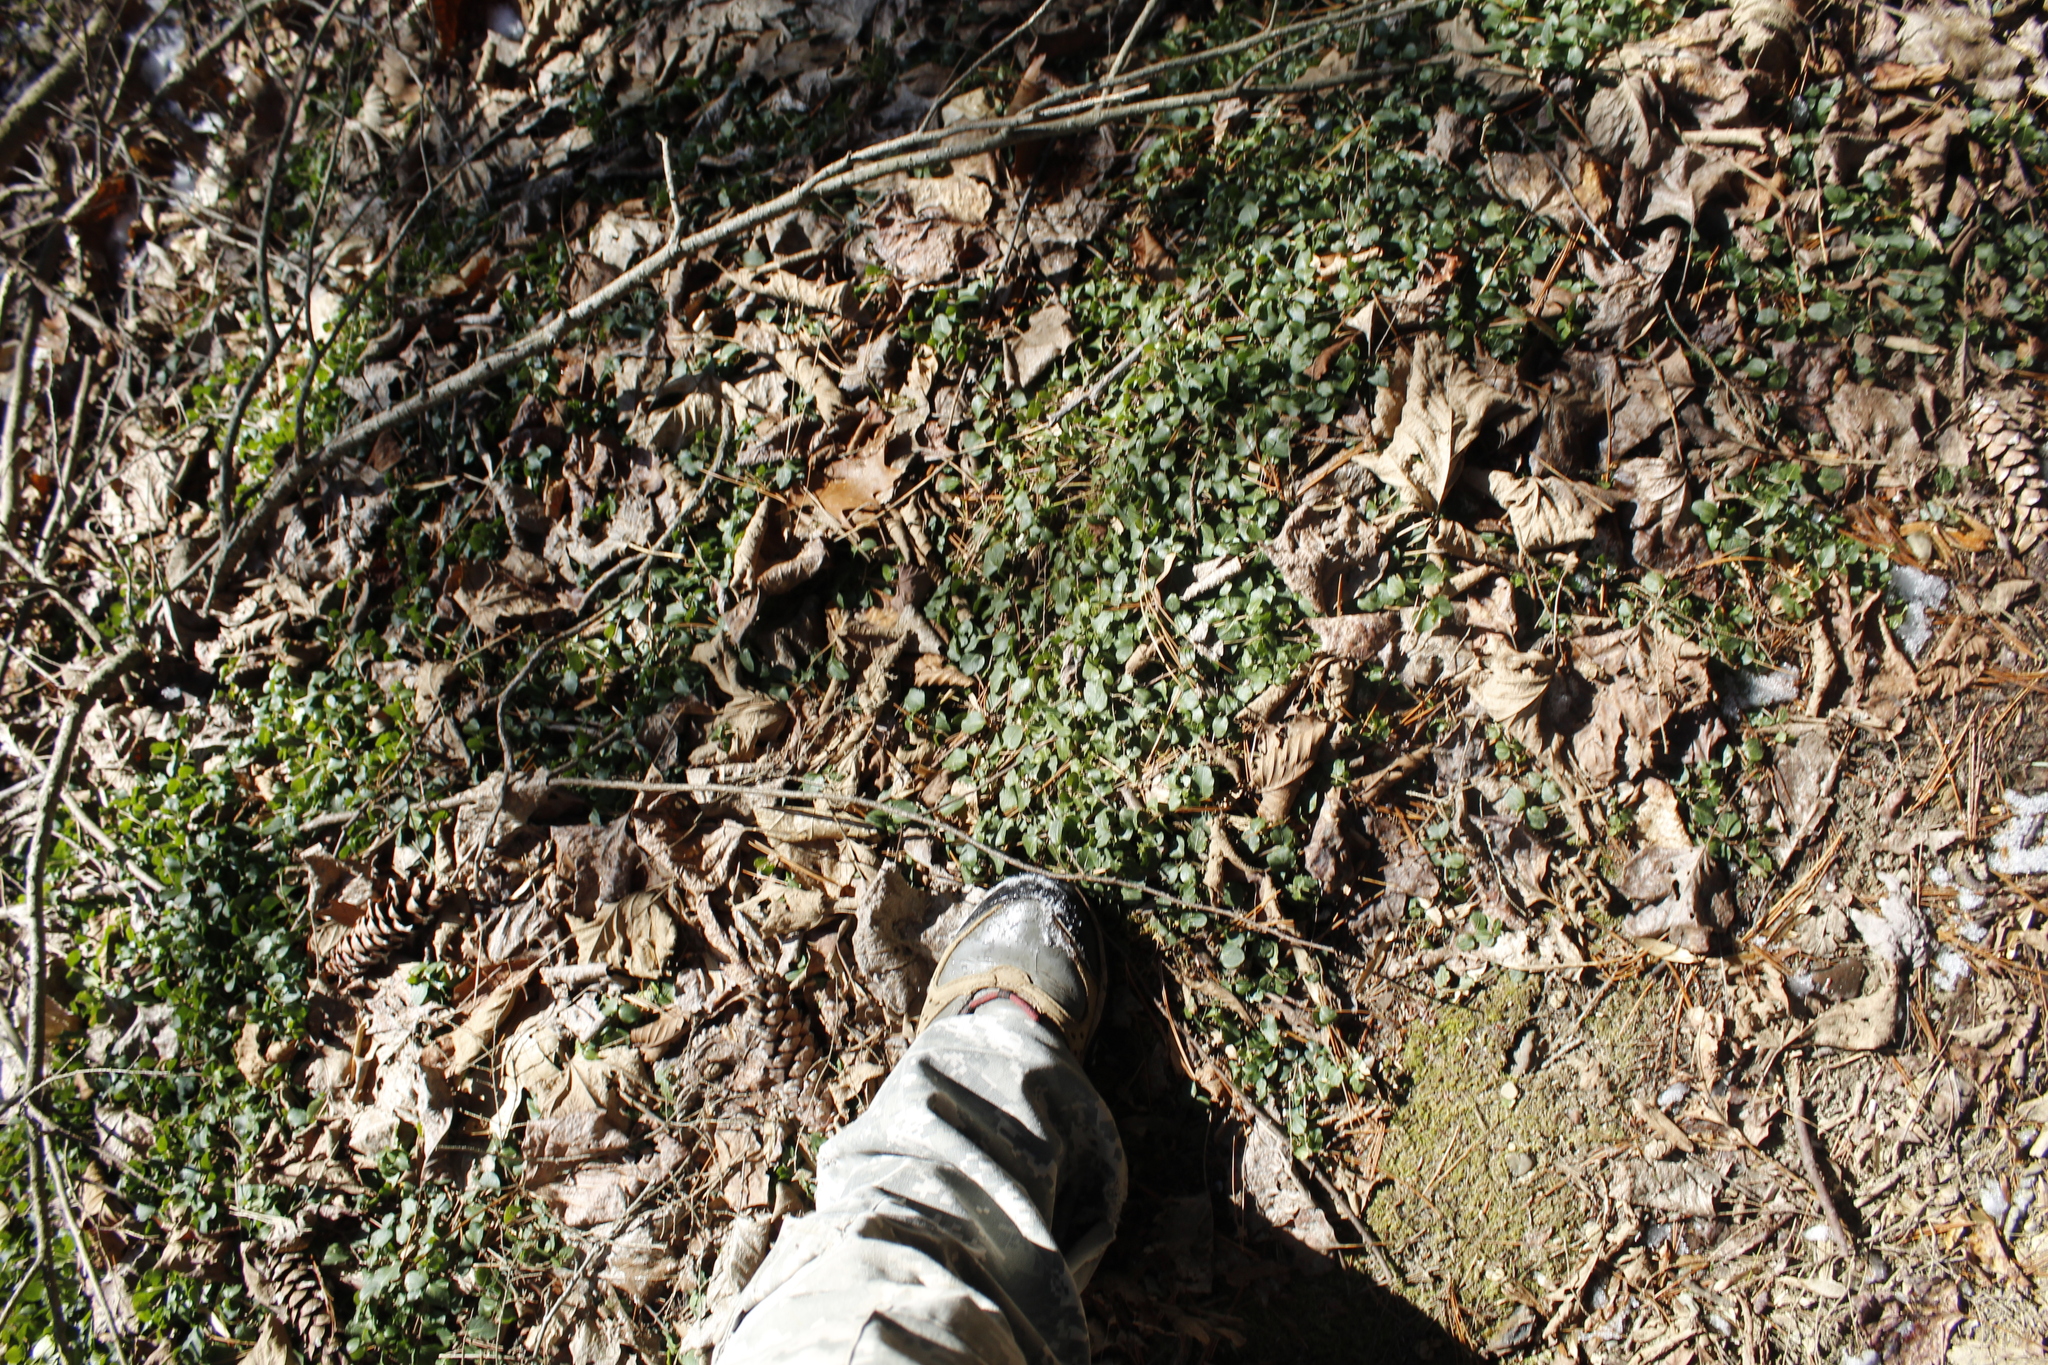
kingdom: Plantae
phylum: Tracheophyta
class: Magnoliopsida
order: Gentianales
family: Rubiaceae
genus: Mitchella
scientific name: Mitchella repens
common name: Partridge-berry
